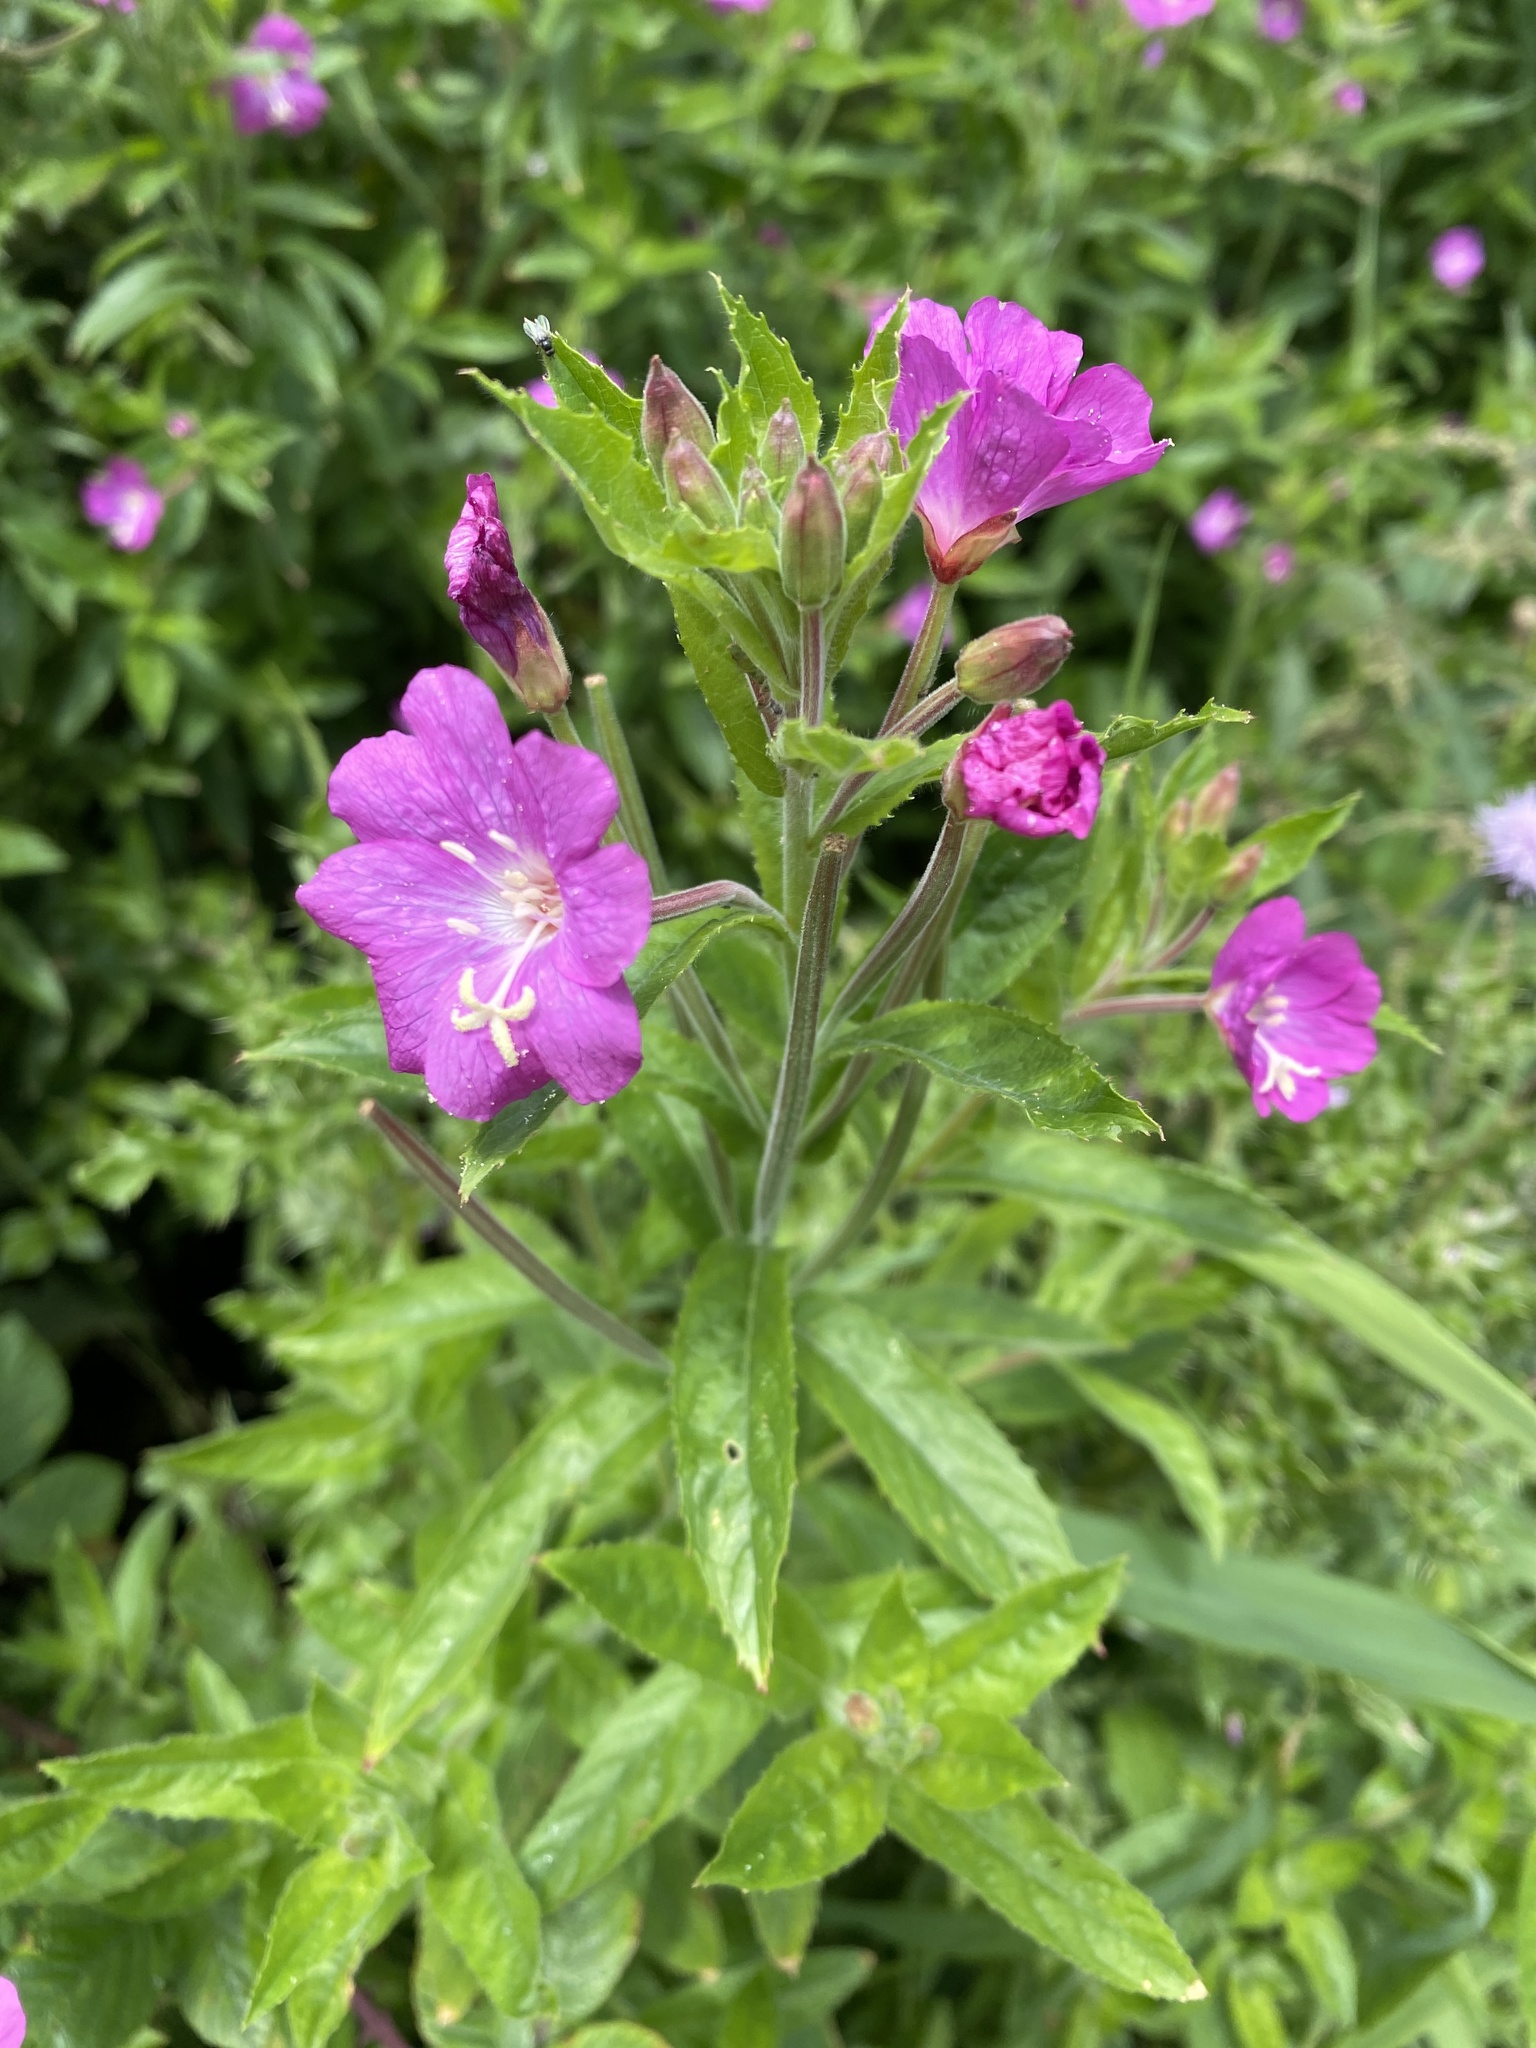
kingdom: Plantae
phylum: Tracheophyta
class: Magnoliopsida
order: Myrtales
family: Onagraceae
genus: Epilobium
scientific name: Epilobium hirsutum
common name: Great willowherb
